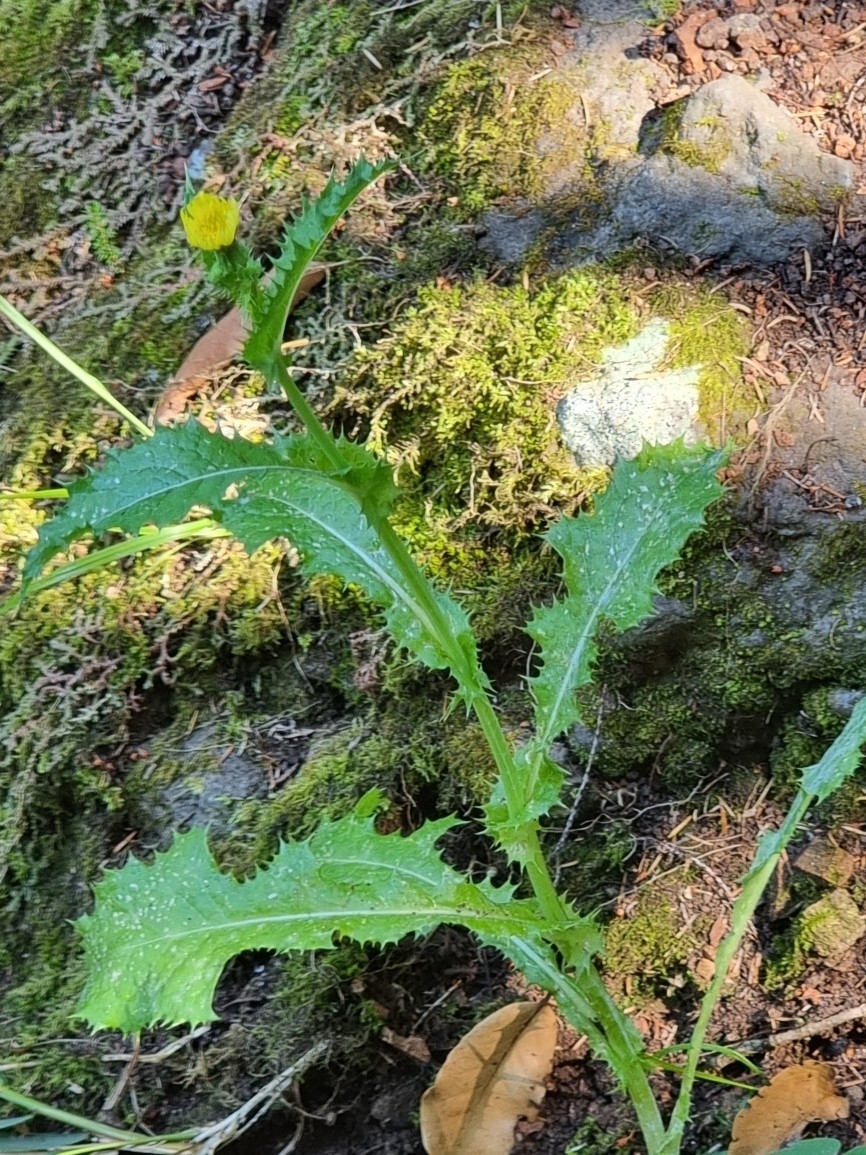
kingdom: Plantae
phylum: Tracheophyta
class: Magnoliopsida
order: Asterales
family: Asteraceae
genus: Sonchus
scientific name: Sonchus asper
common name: Prickly sow-thistle
